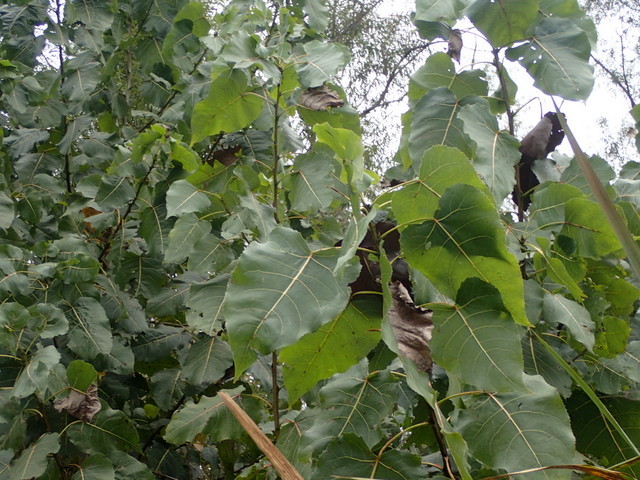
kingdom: Plantae
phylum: Tracheophyta
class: Magnoliopsida
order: Malpighiales
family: Salicaceae
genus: Populus
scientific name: Populus deltoides
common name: Eastern cottonwood
